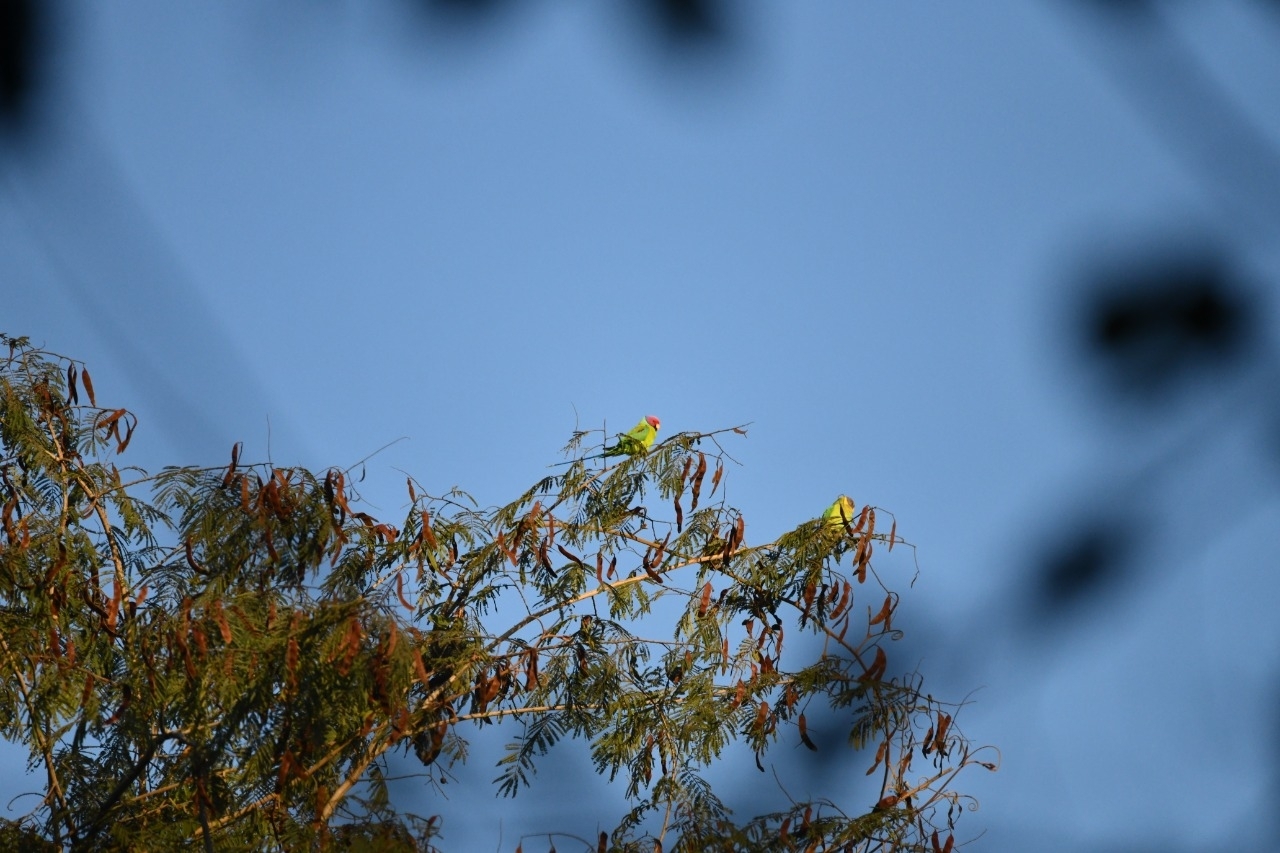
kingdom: Animalia
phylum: Chordata
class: Aves
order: Psittaciformes
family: Psittacidae
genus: Psittacula
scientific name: Psittacula cyanocephala
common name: Plum-headed parakeet
